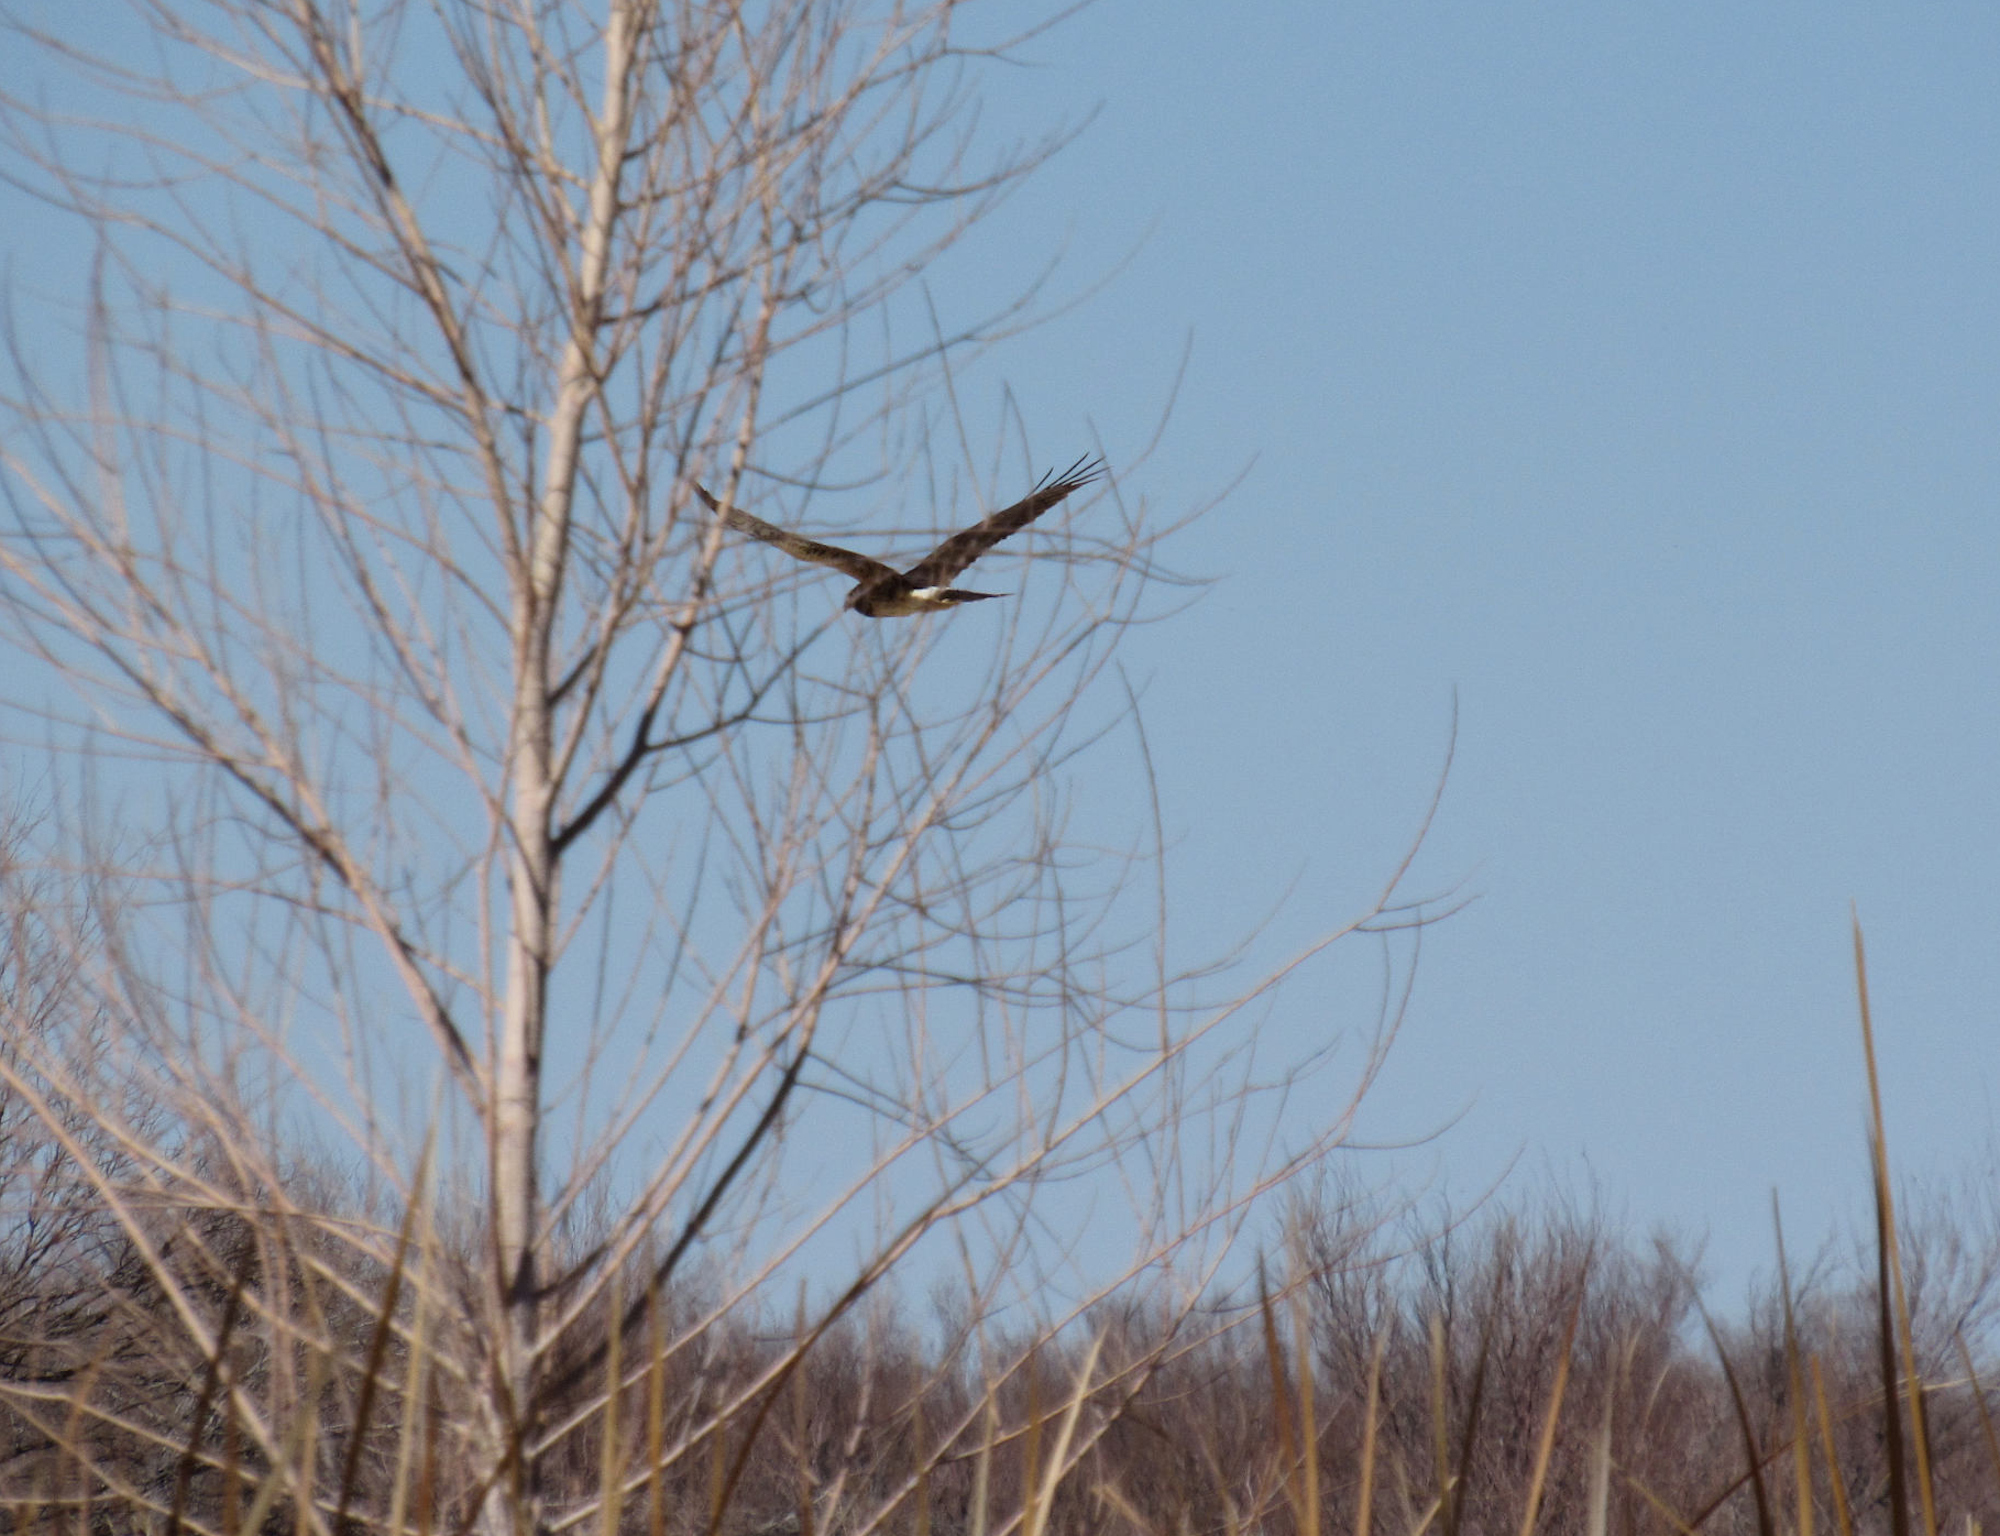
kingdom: Animalia
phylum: Chordata
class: Aves
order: Accipitriformes
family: Accipitridae
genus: Circus
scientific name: Circus cyaneus
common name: Hen harrier
